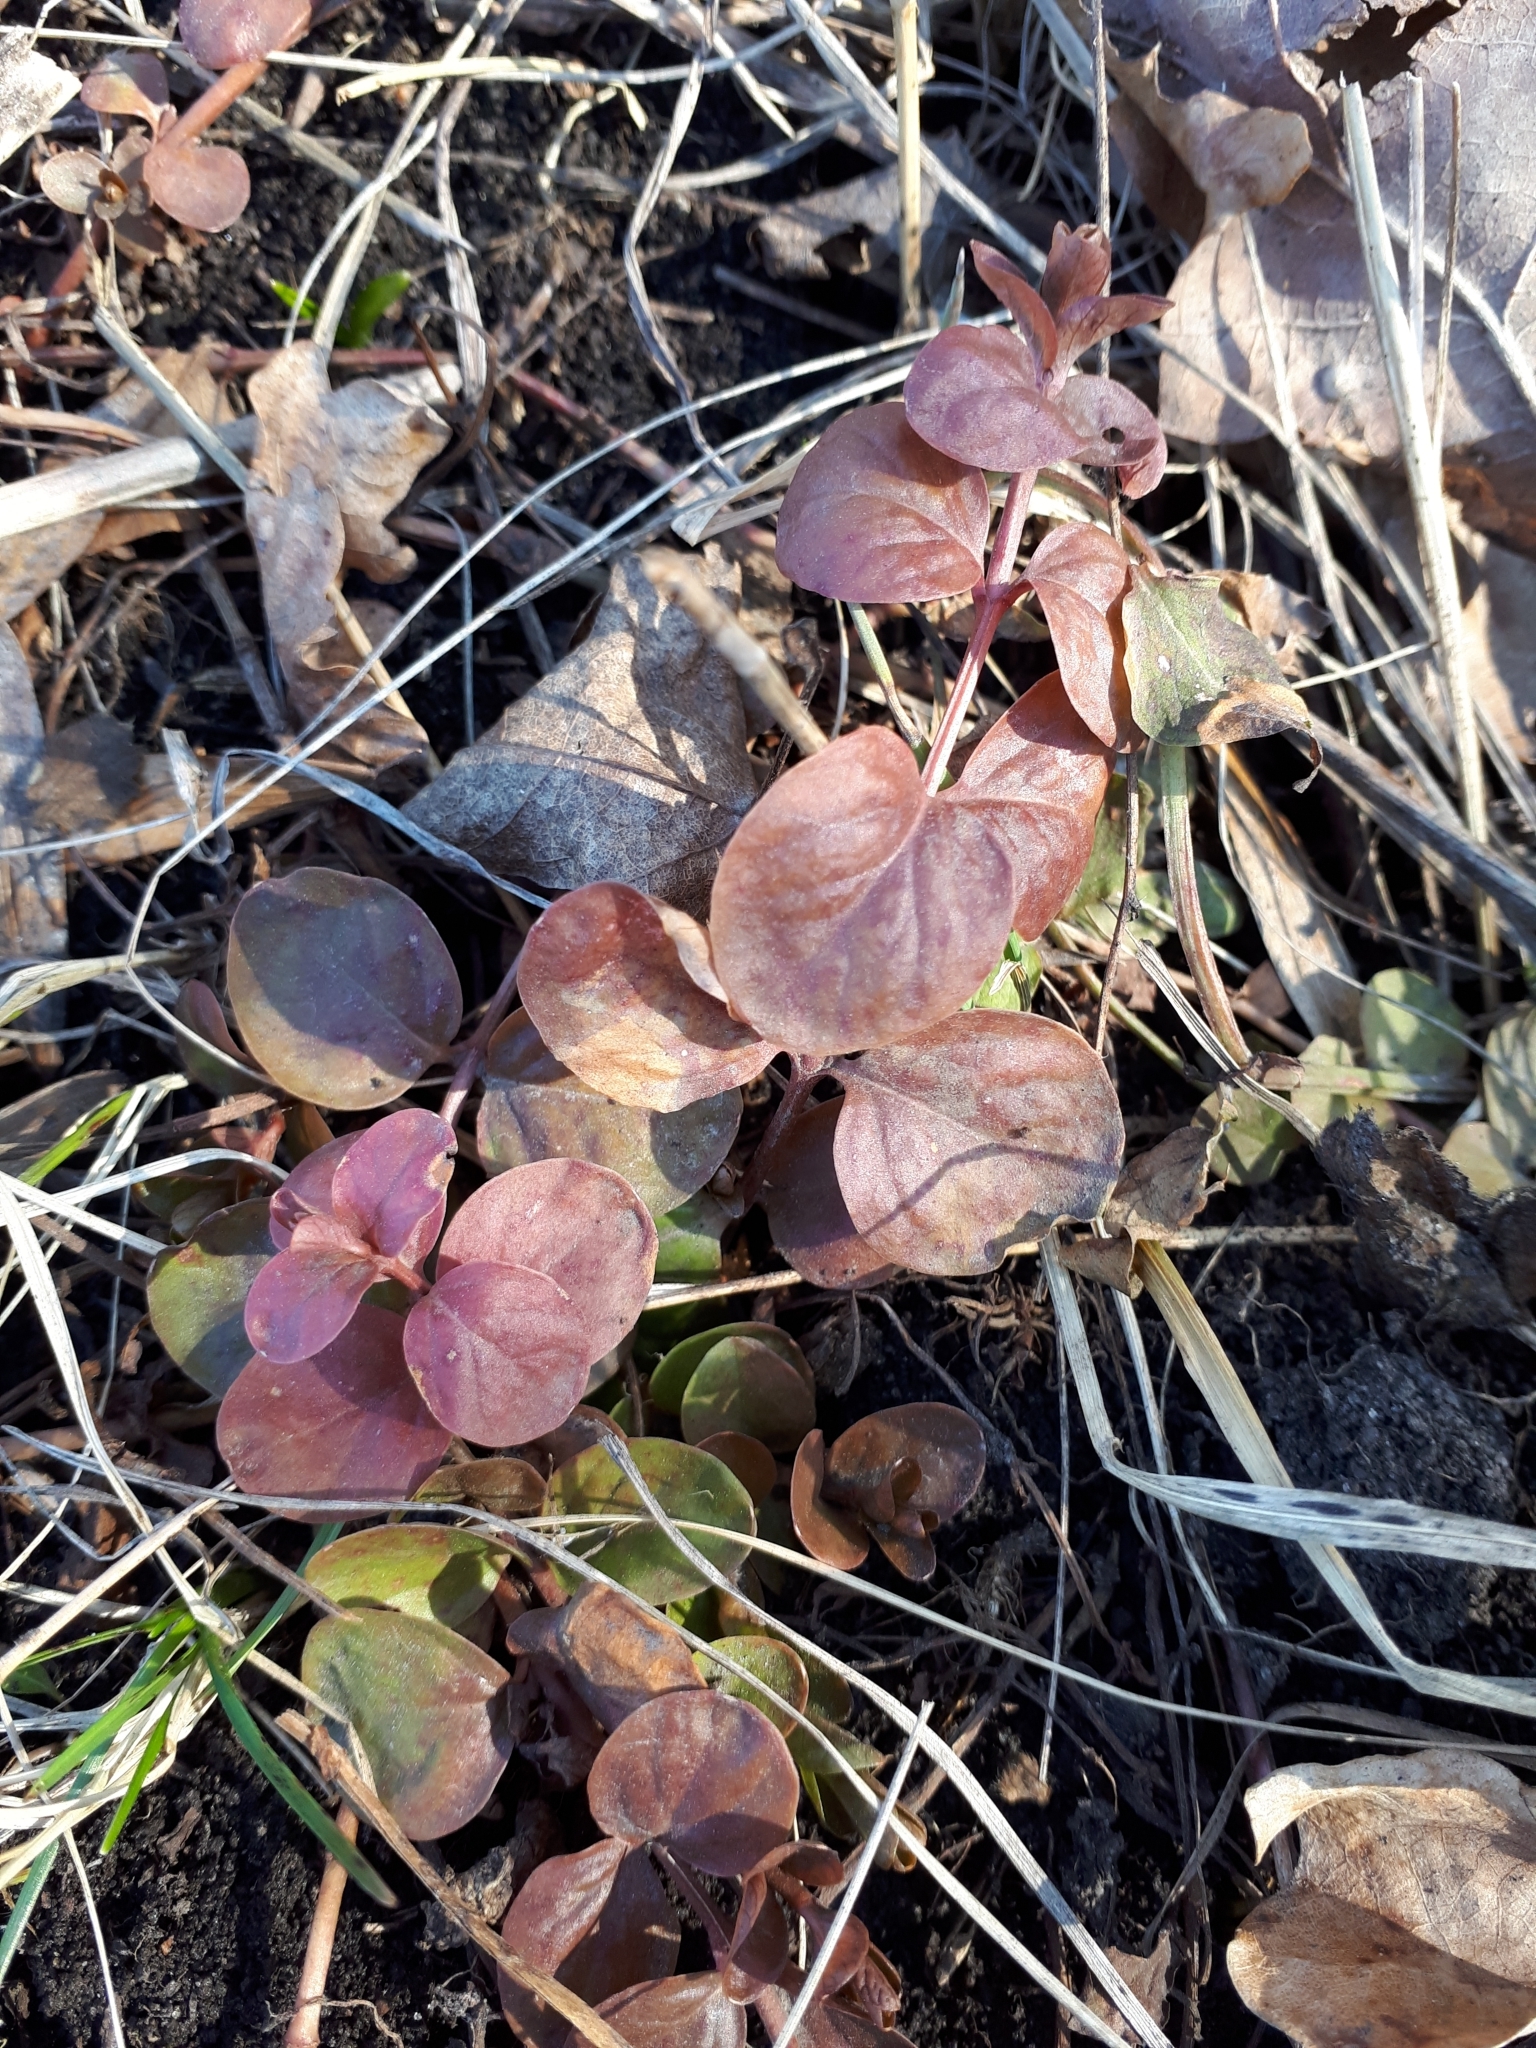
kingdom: Plantae
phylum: Tracheophyta
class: Magnoliopsida
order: Ericales
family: Primulaceae
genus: Lysimachia
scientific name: Lysimachia nummularia
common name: Moneywort
